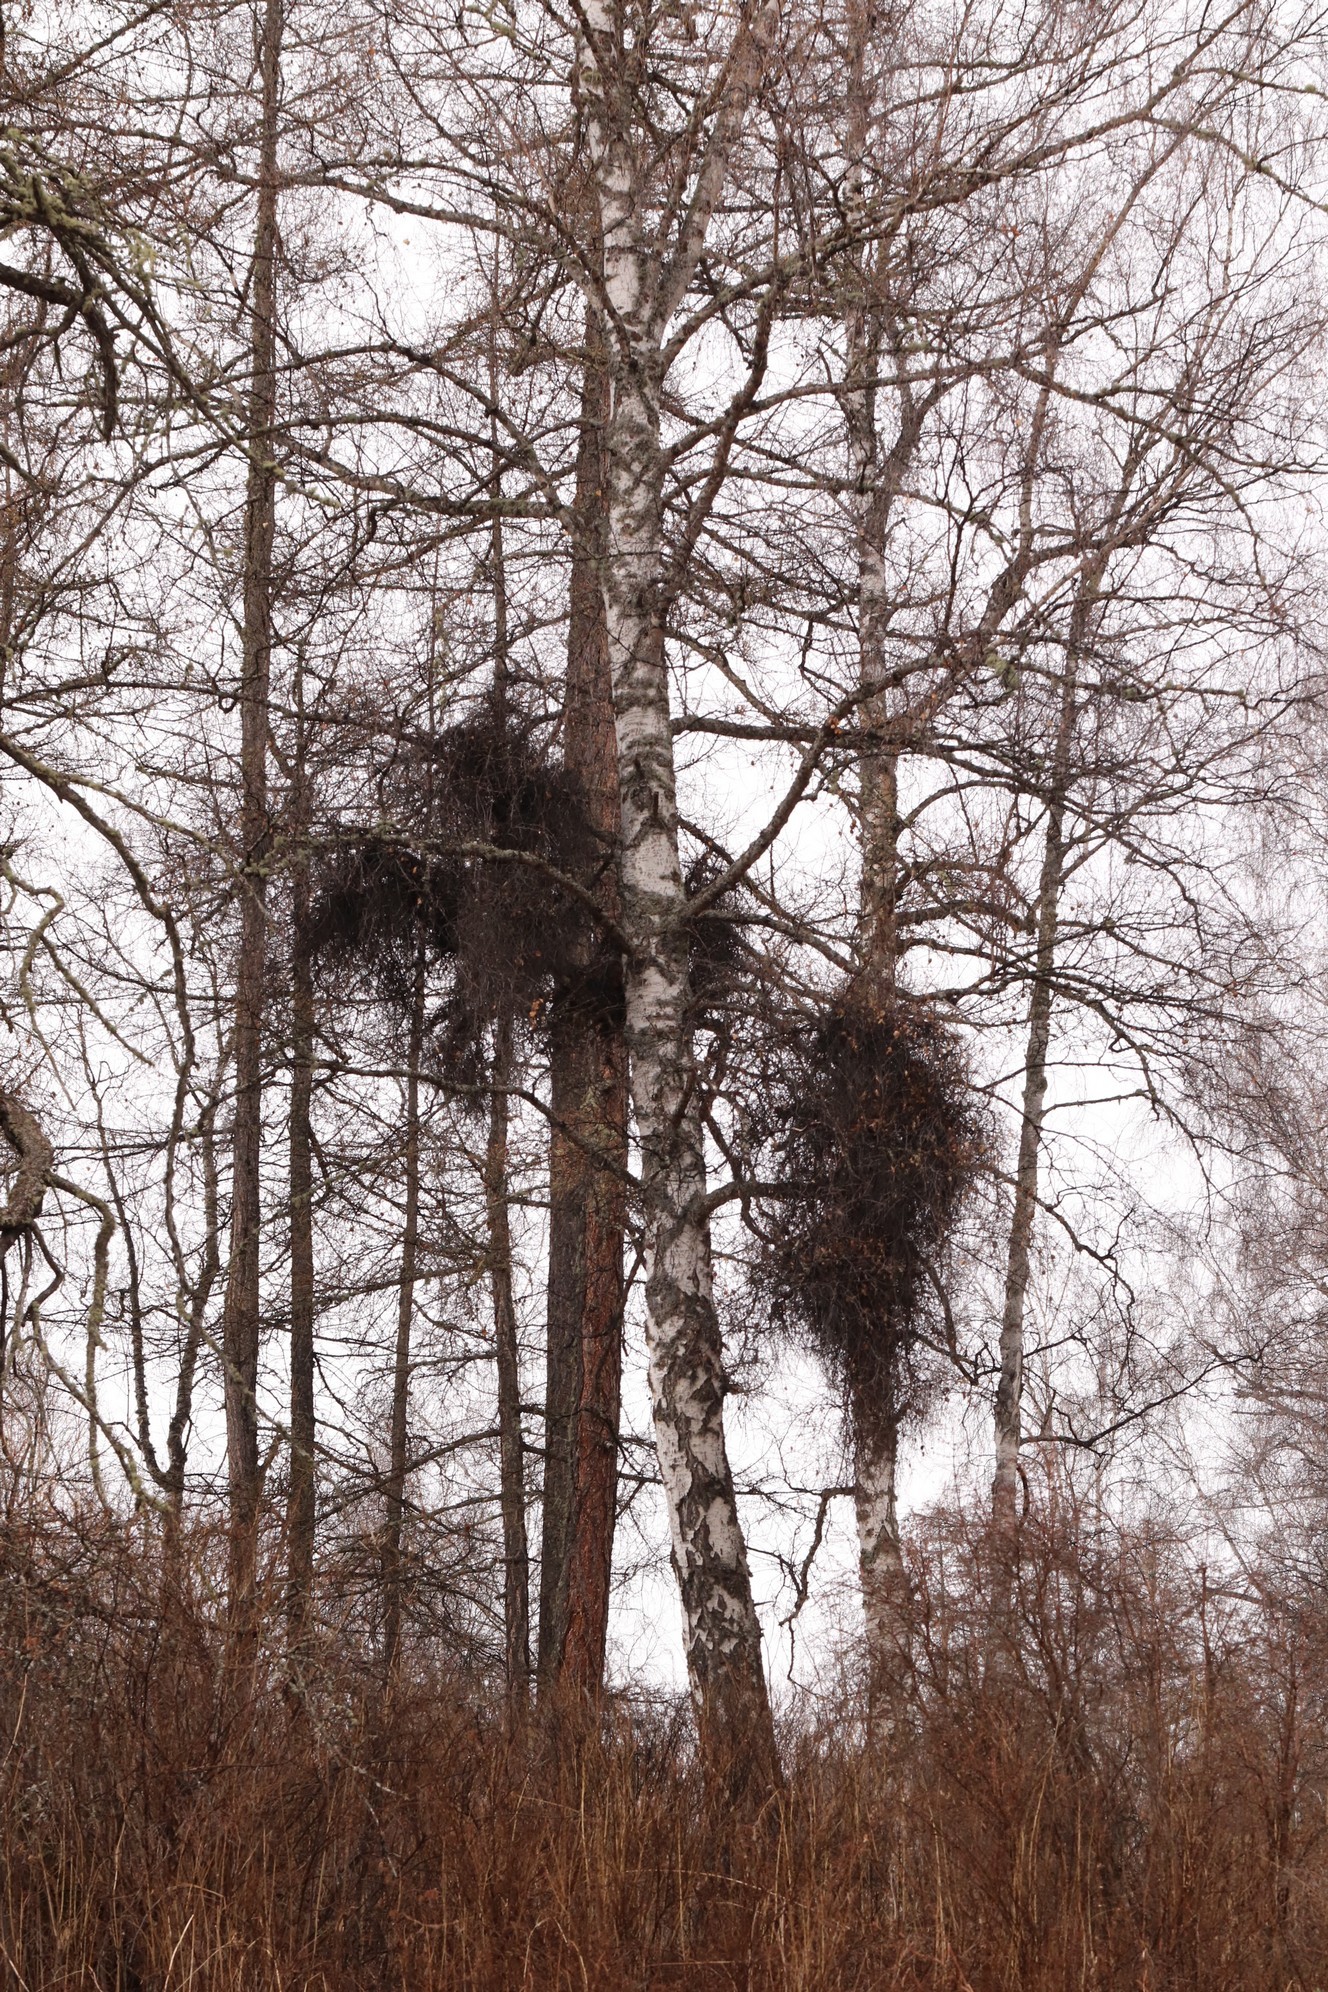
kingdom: Fungi
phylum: Ascomycota
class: Taphrinomycetes
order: Taphrinales
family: Taphrinaceae
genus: Taphrina
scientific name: Taphrina betulina
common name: Birch besom
